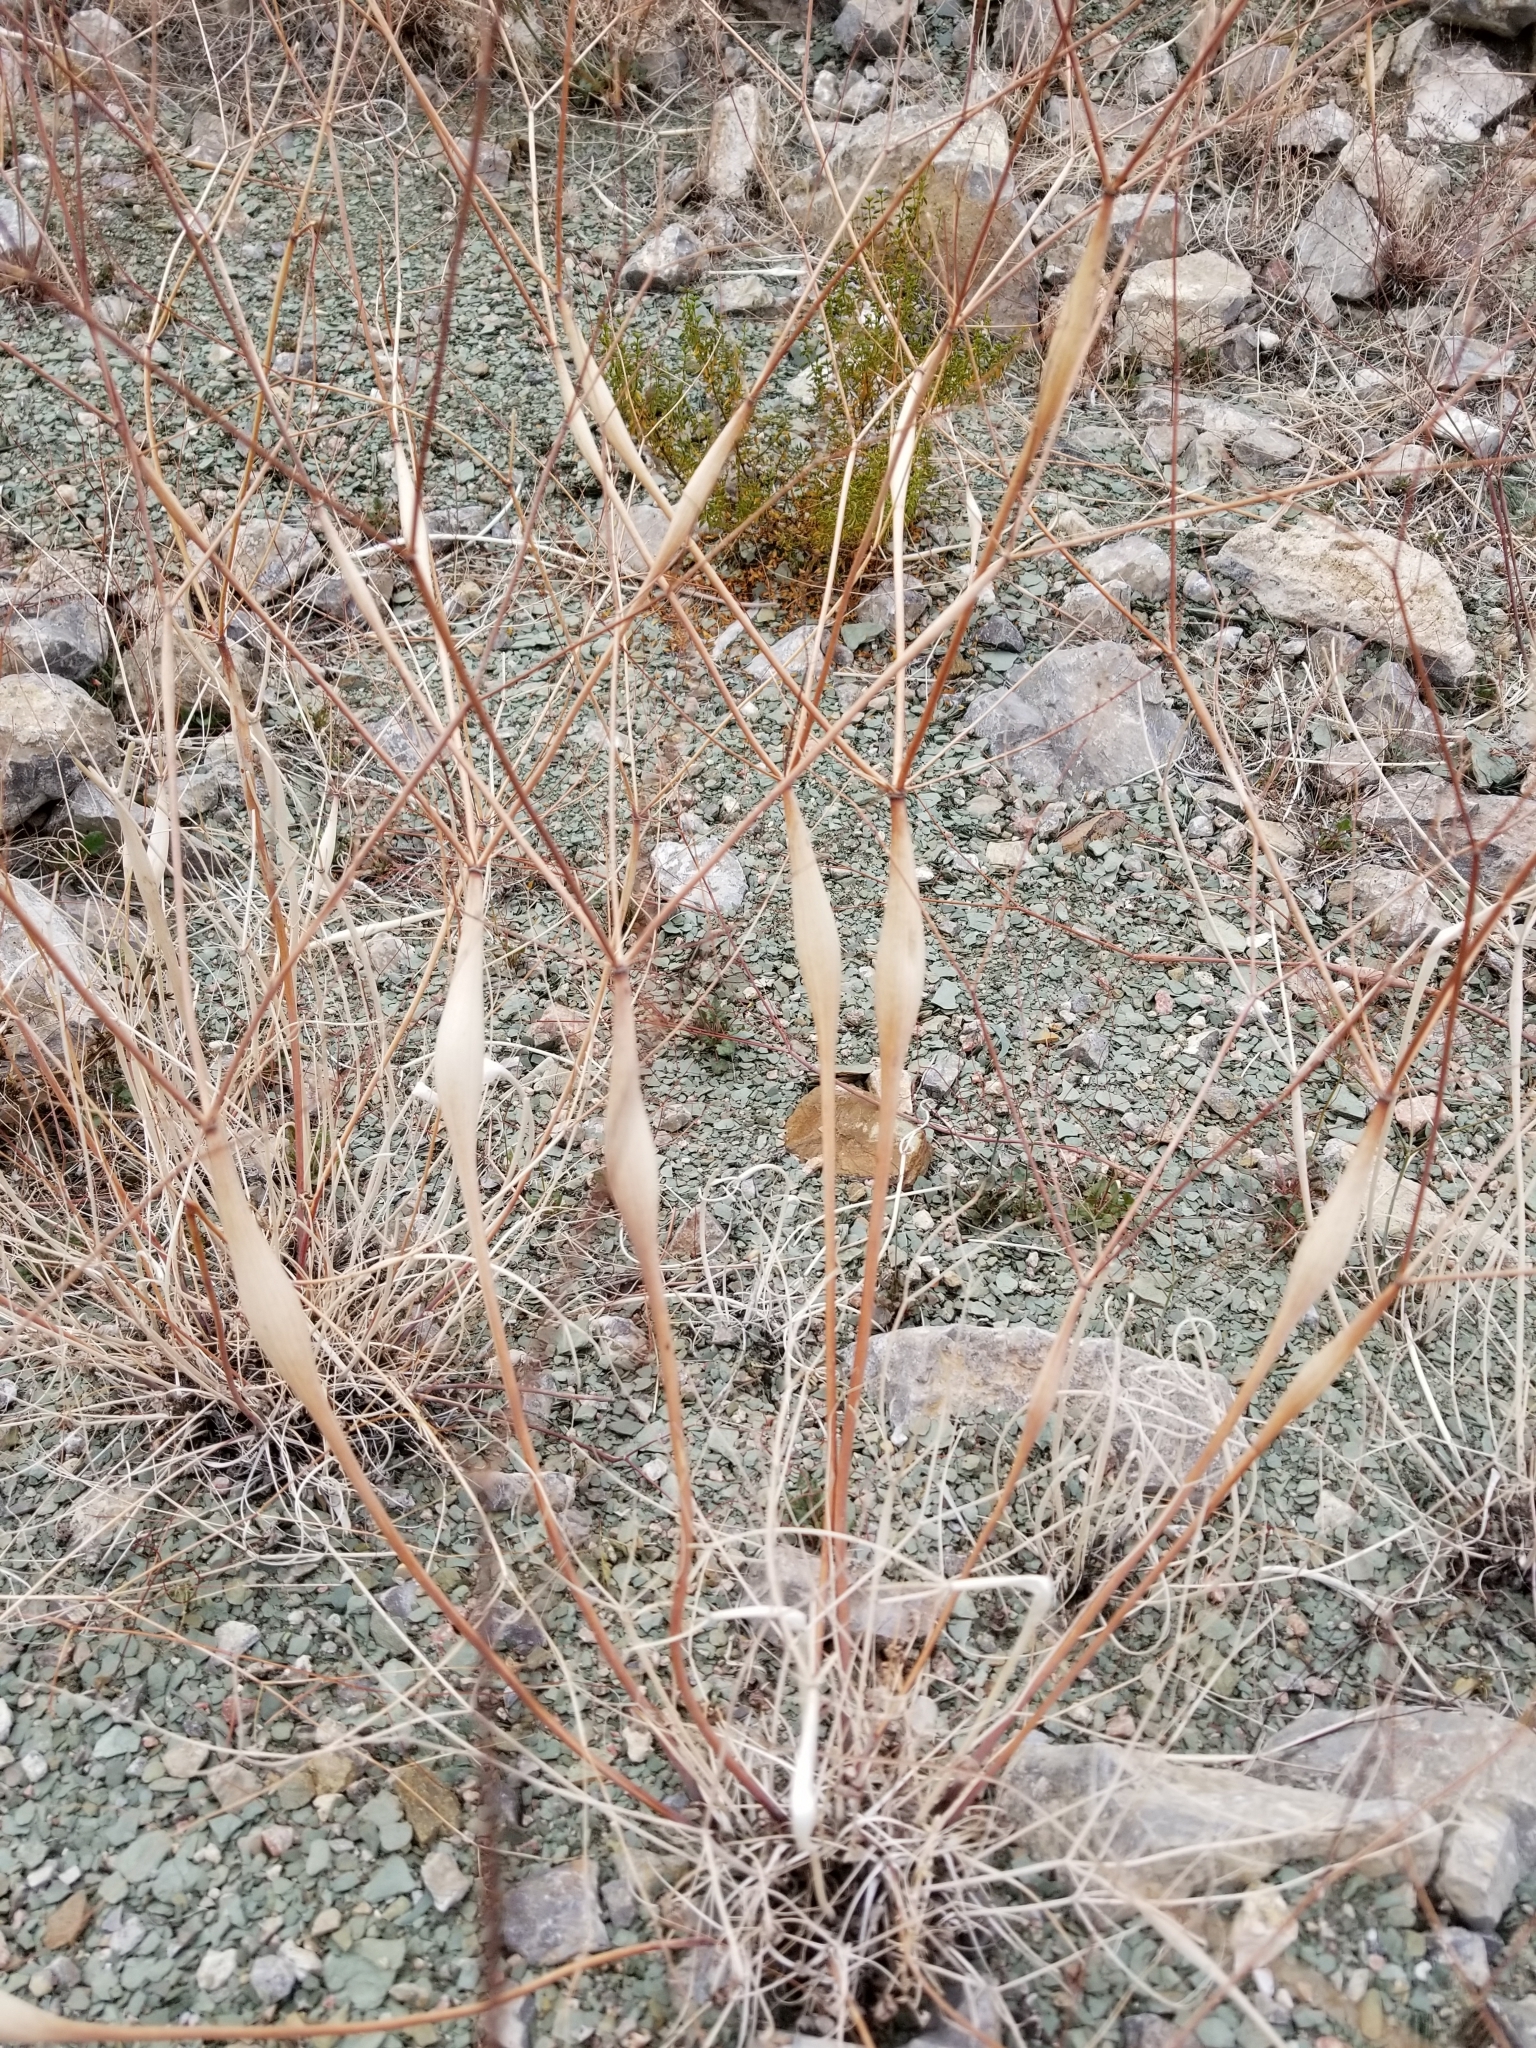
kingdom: Plantae
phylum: Tracheophyta
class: Magnoliopsida
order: Caryophyllales
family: Polygonaceae
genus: Eriogonum
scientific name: Eriogonum inflatum
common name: Desert trumpet
